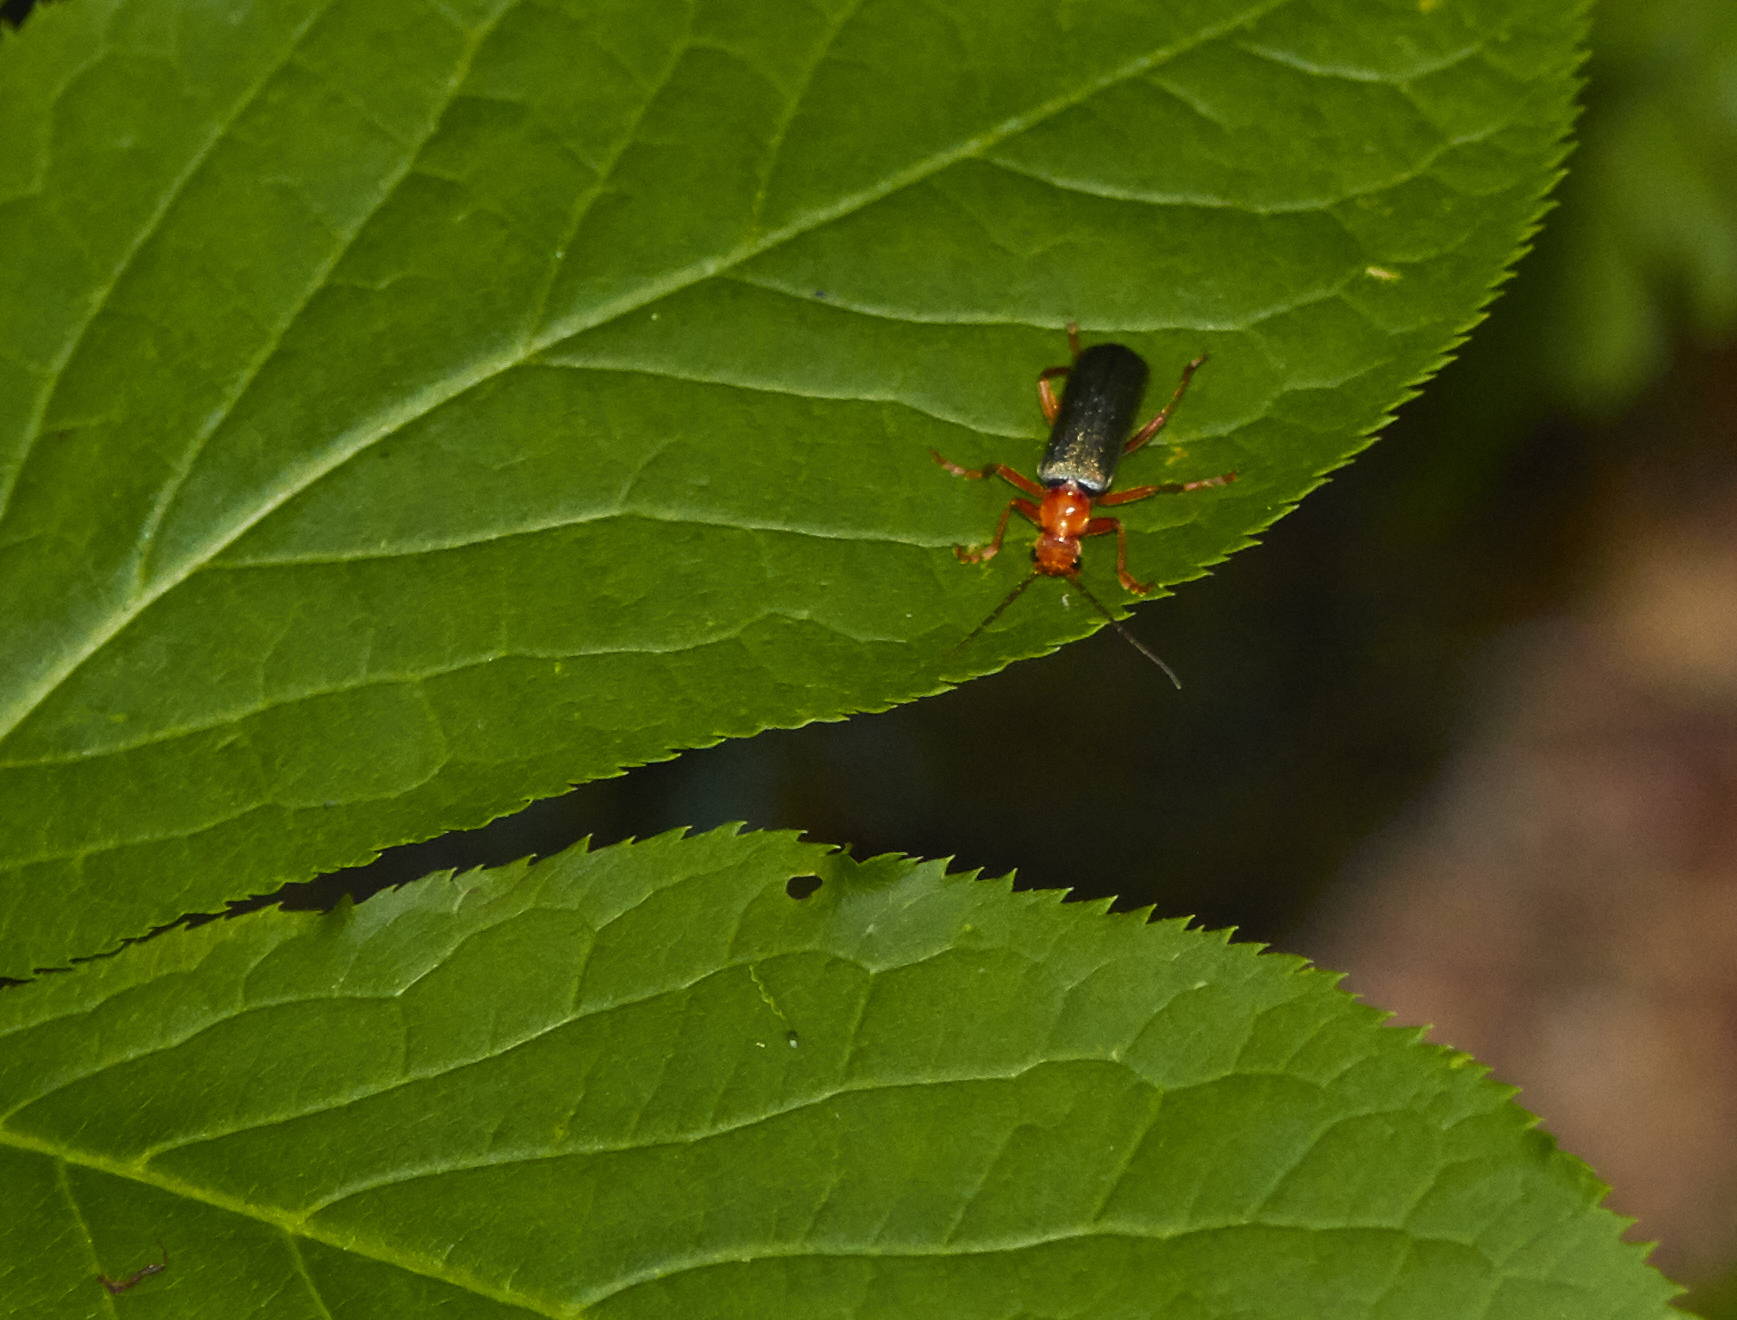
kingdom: Animalia
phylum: Arthropoda
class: Insecta
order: Coleoptera
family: Cantharidae
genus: Pacificanthia
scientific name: Pacificanthia rotundicollis
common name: Brown leatherwing beetle
